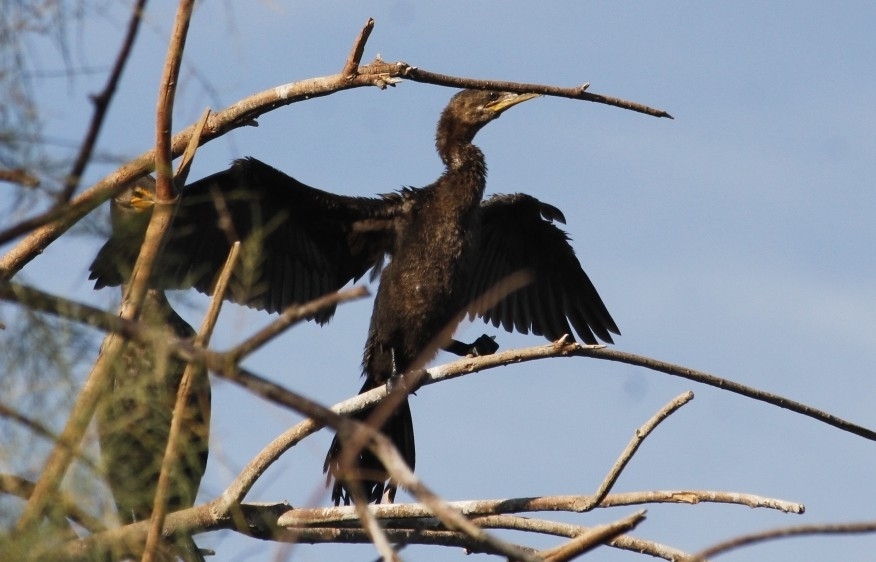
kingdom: Animalia
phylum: Chordata
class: Aves
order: Suliformes
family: Phalacrocoracidae
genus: Phalacrocorax
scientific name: Phalacrocorax brasilianus
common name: Neotropic cormorant
